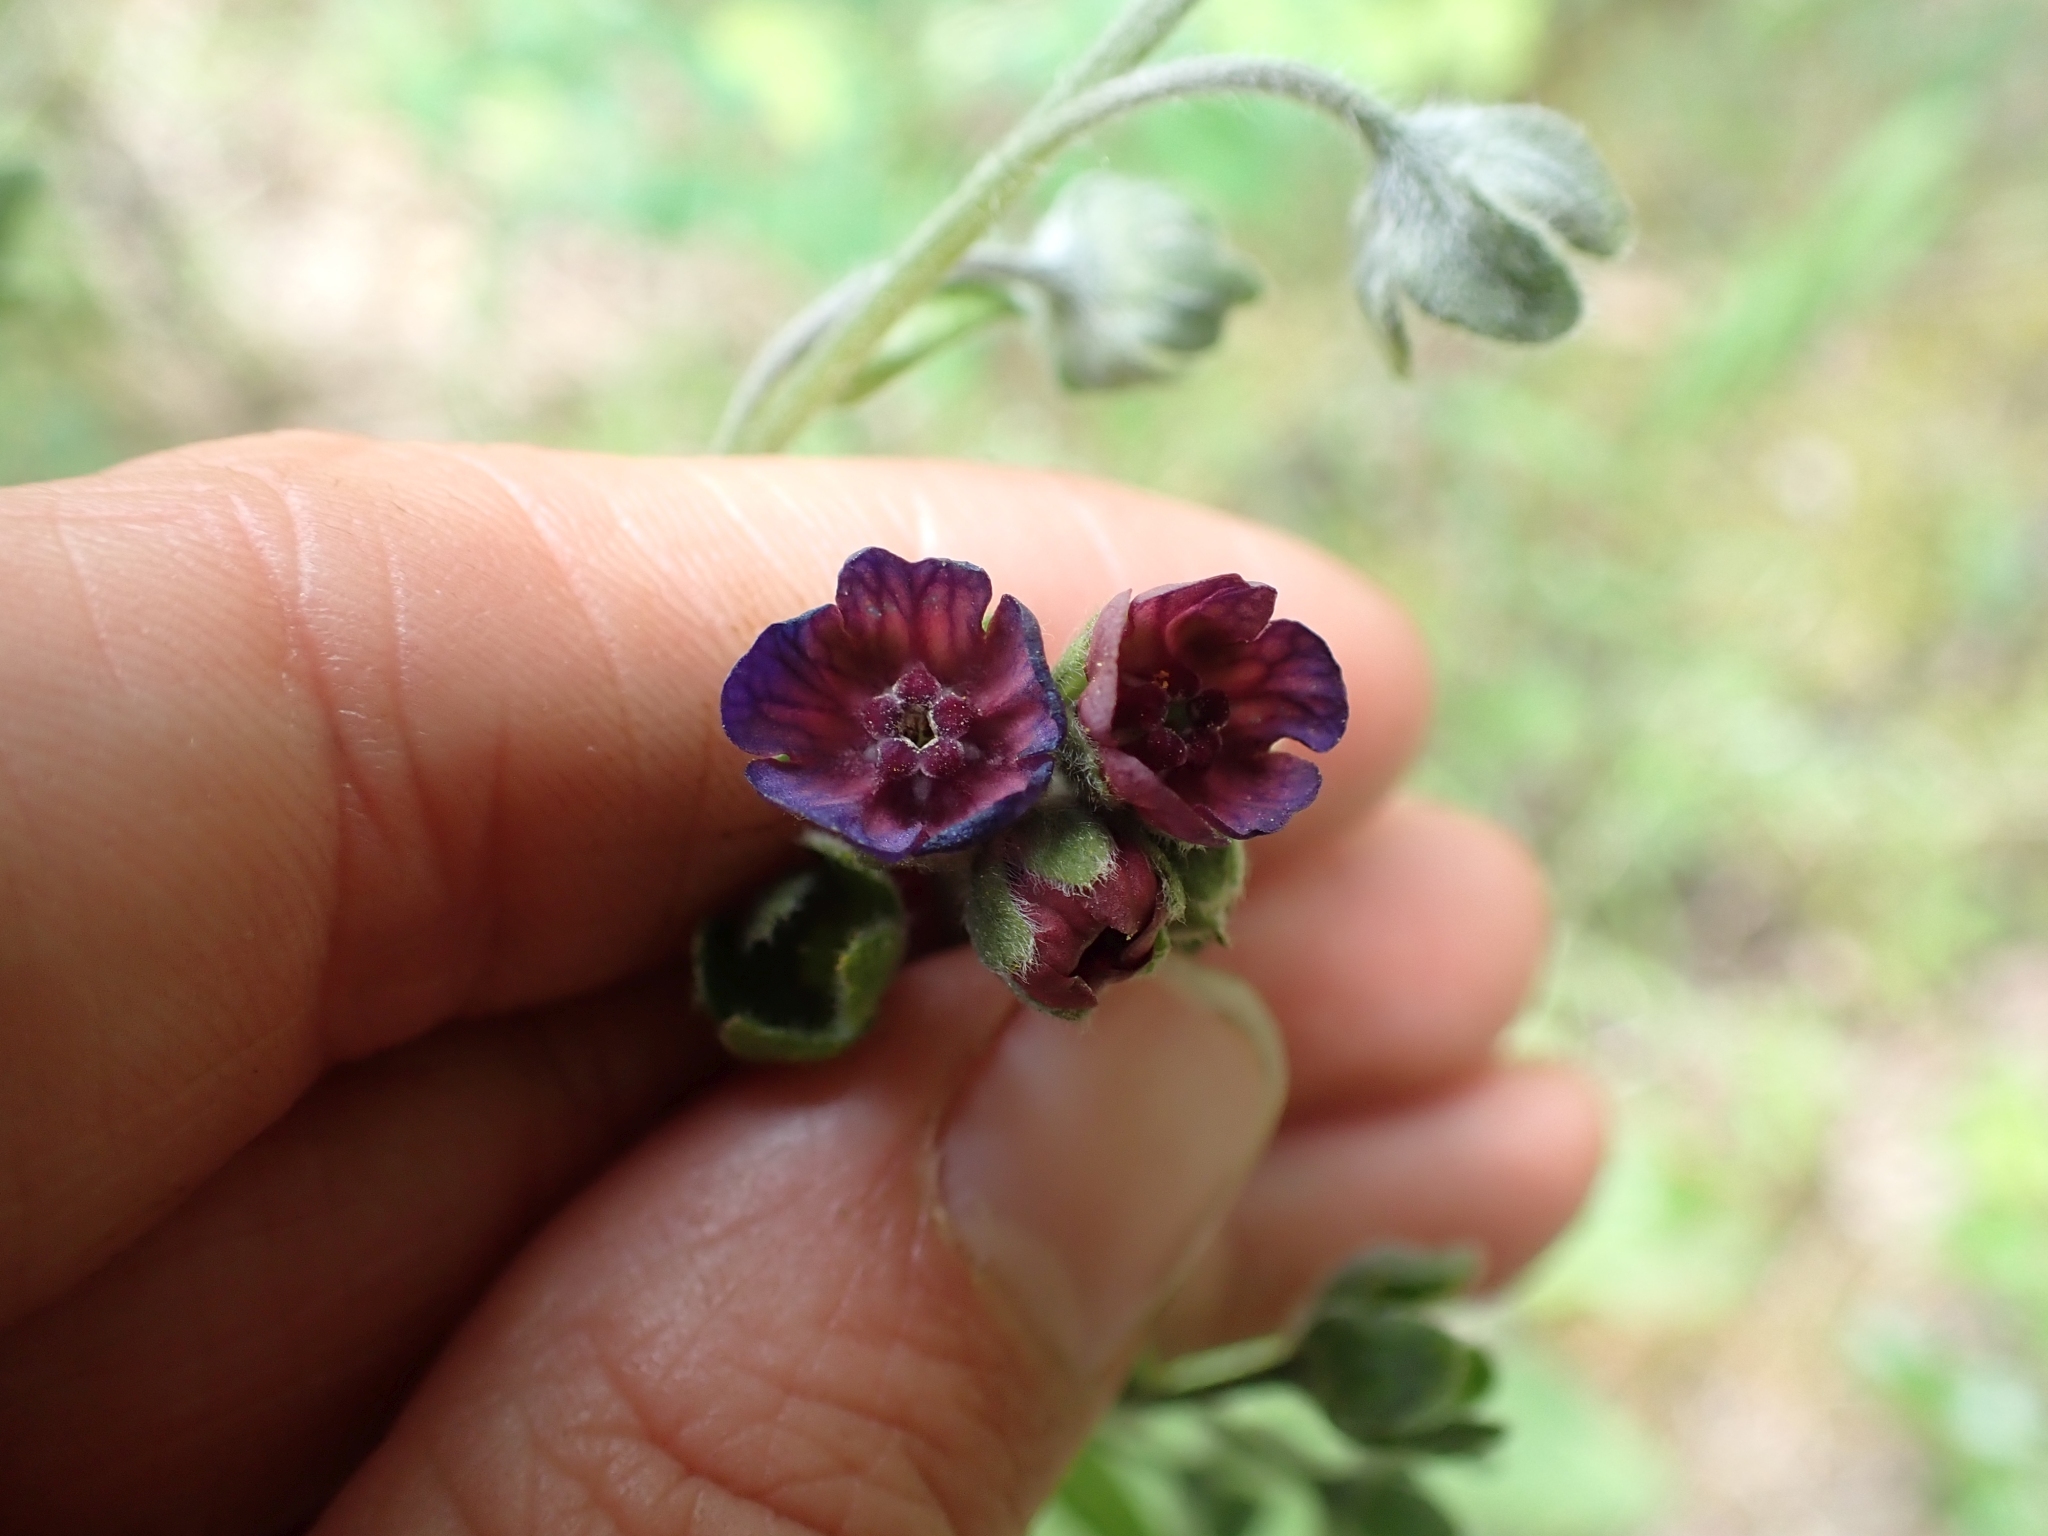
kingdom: Plantae
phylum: Tracheophyta
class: Magnoliopsida
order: Boraginales
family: Boraginaceae
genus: Cynoglossum
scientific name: Cynoglossum officinale
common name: Hound's-tongue
